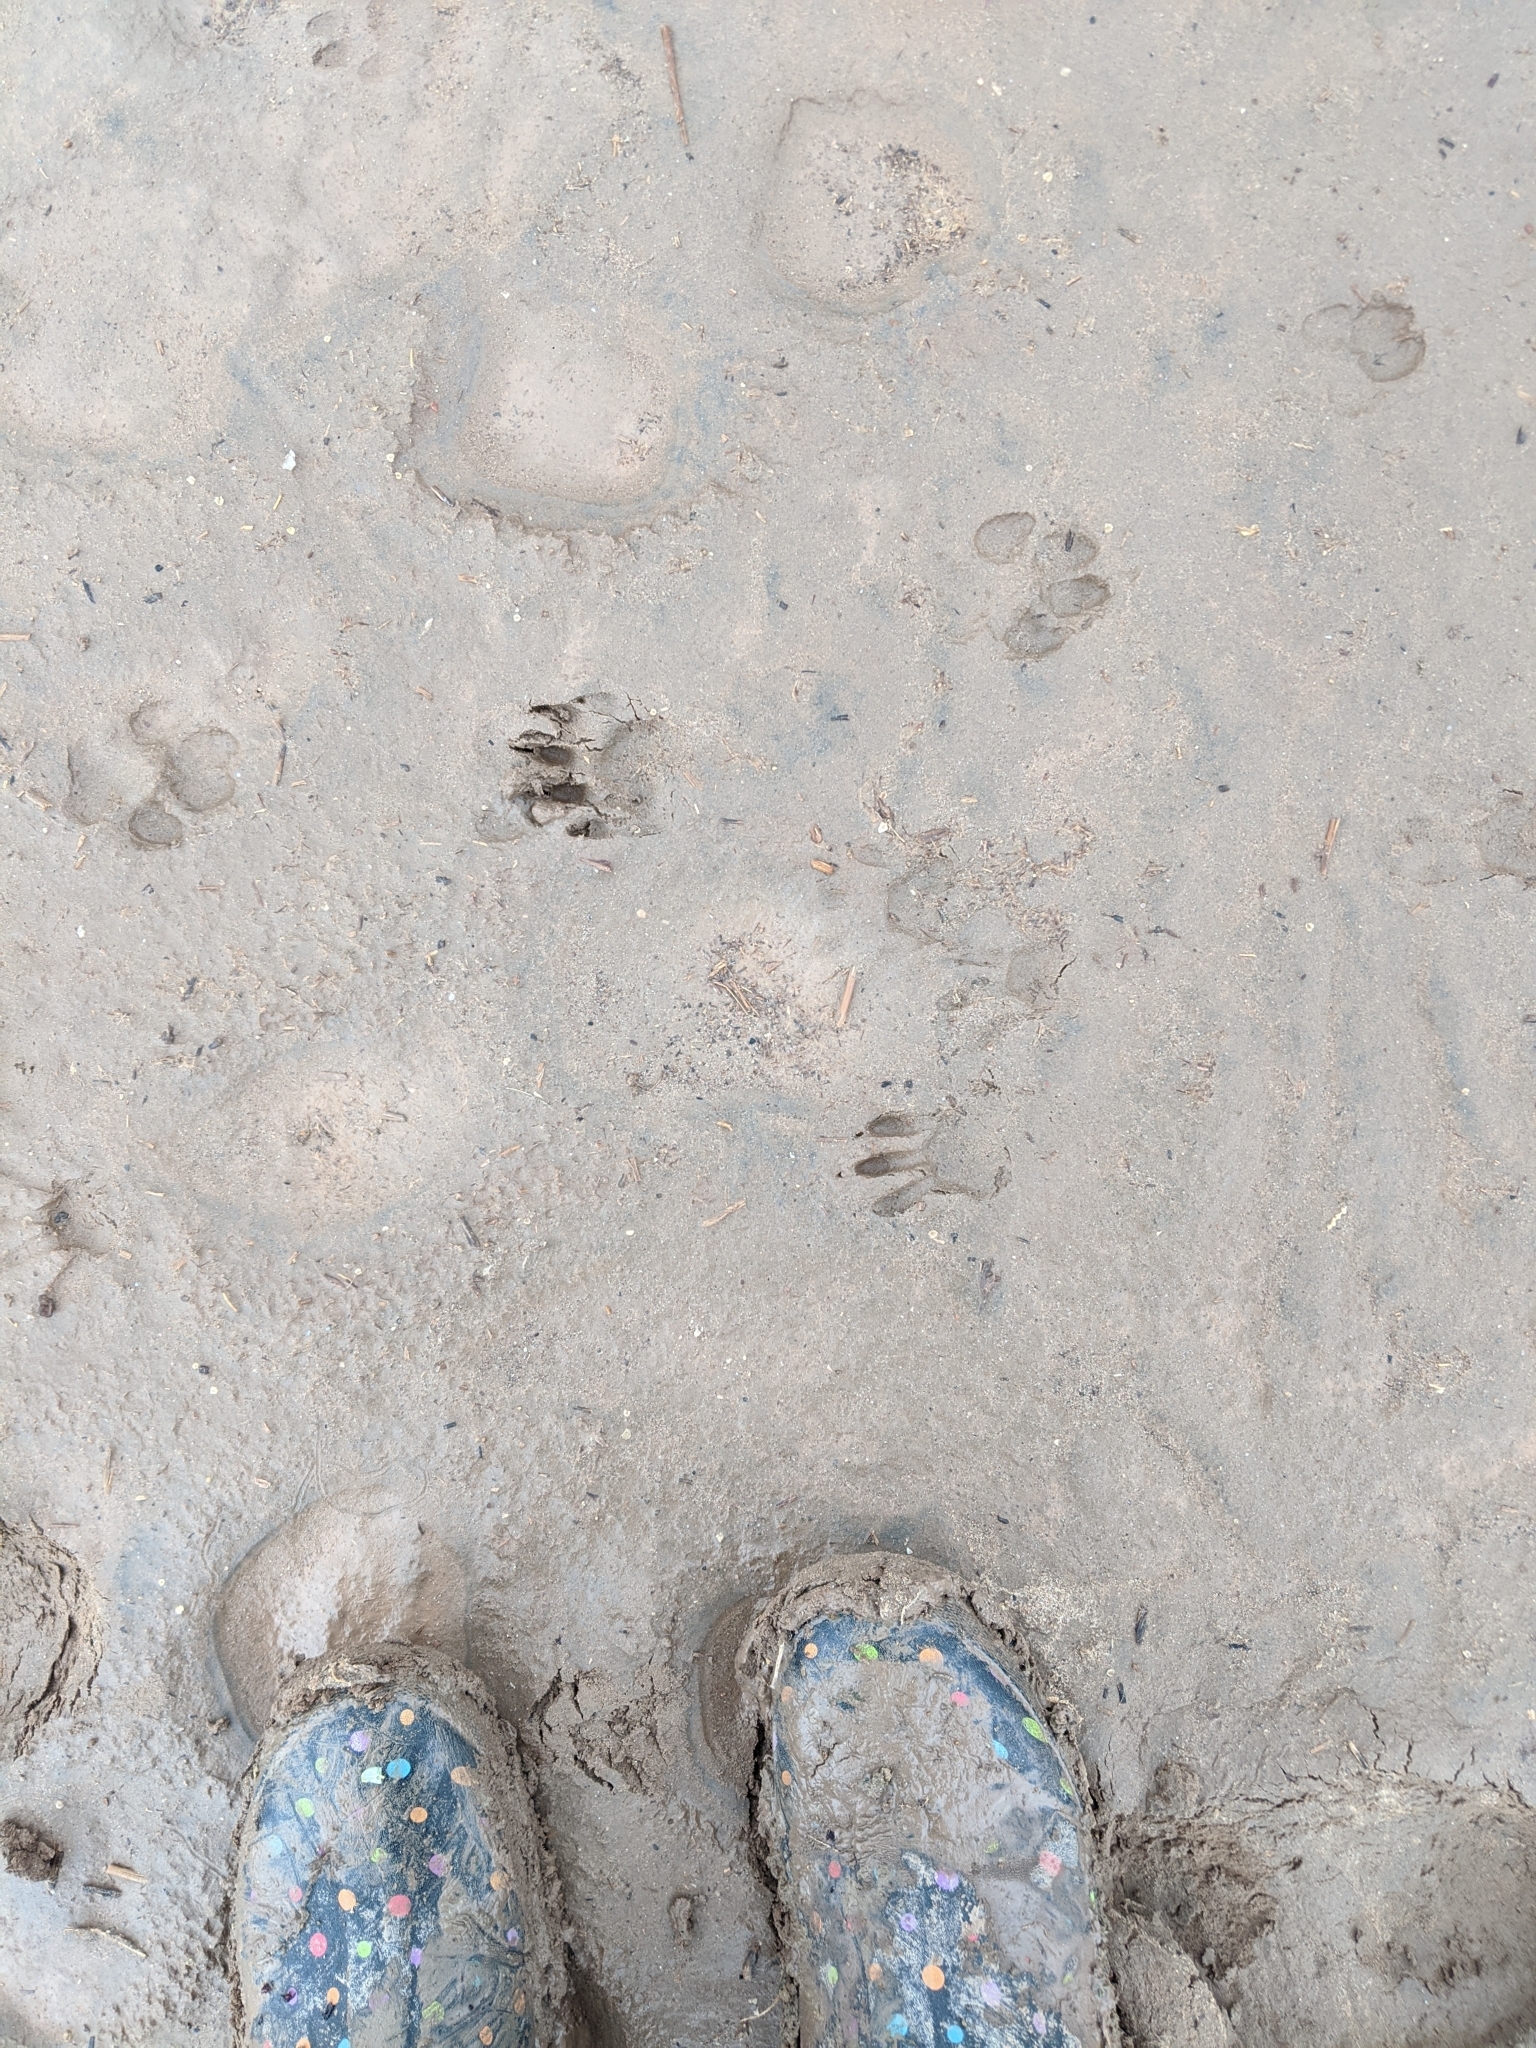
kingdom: Animalia
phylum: Chordata
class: Mammalia
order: Carnivora
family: Procyonidae
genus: Procyon
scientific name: Procyon lotor
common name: Raccoon
